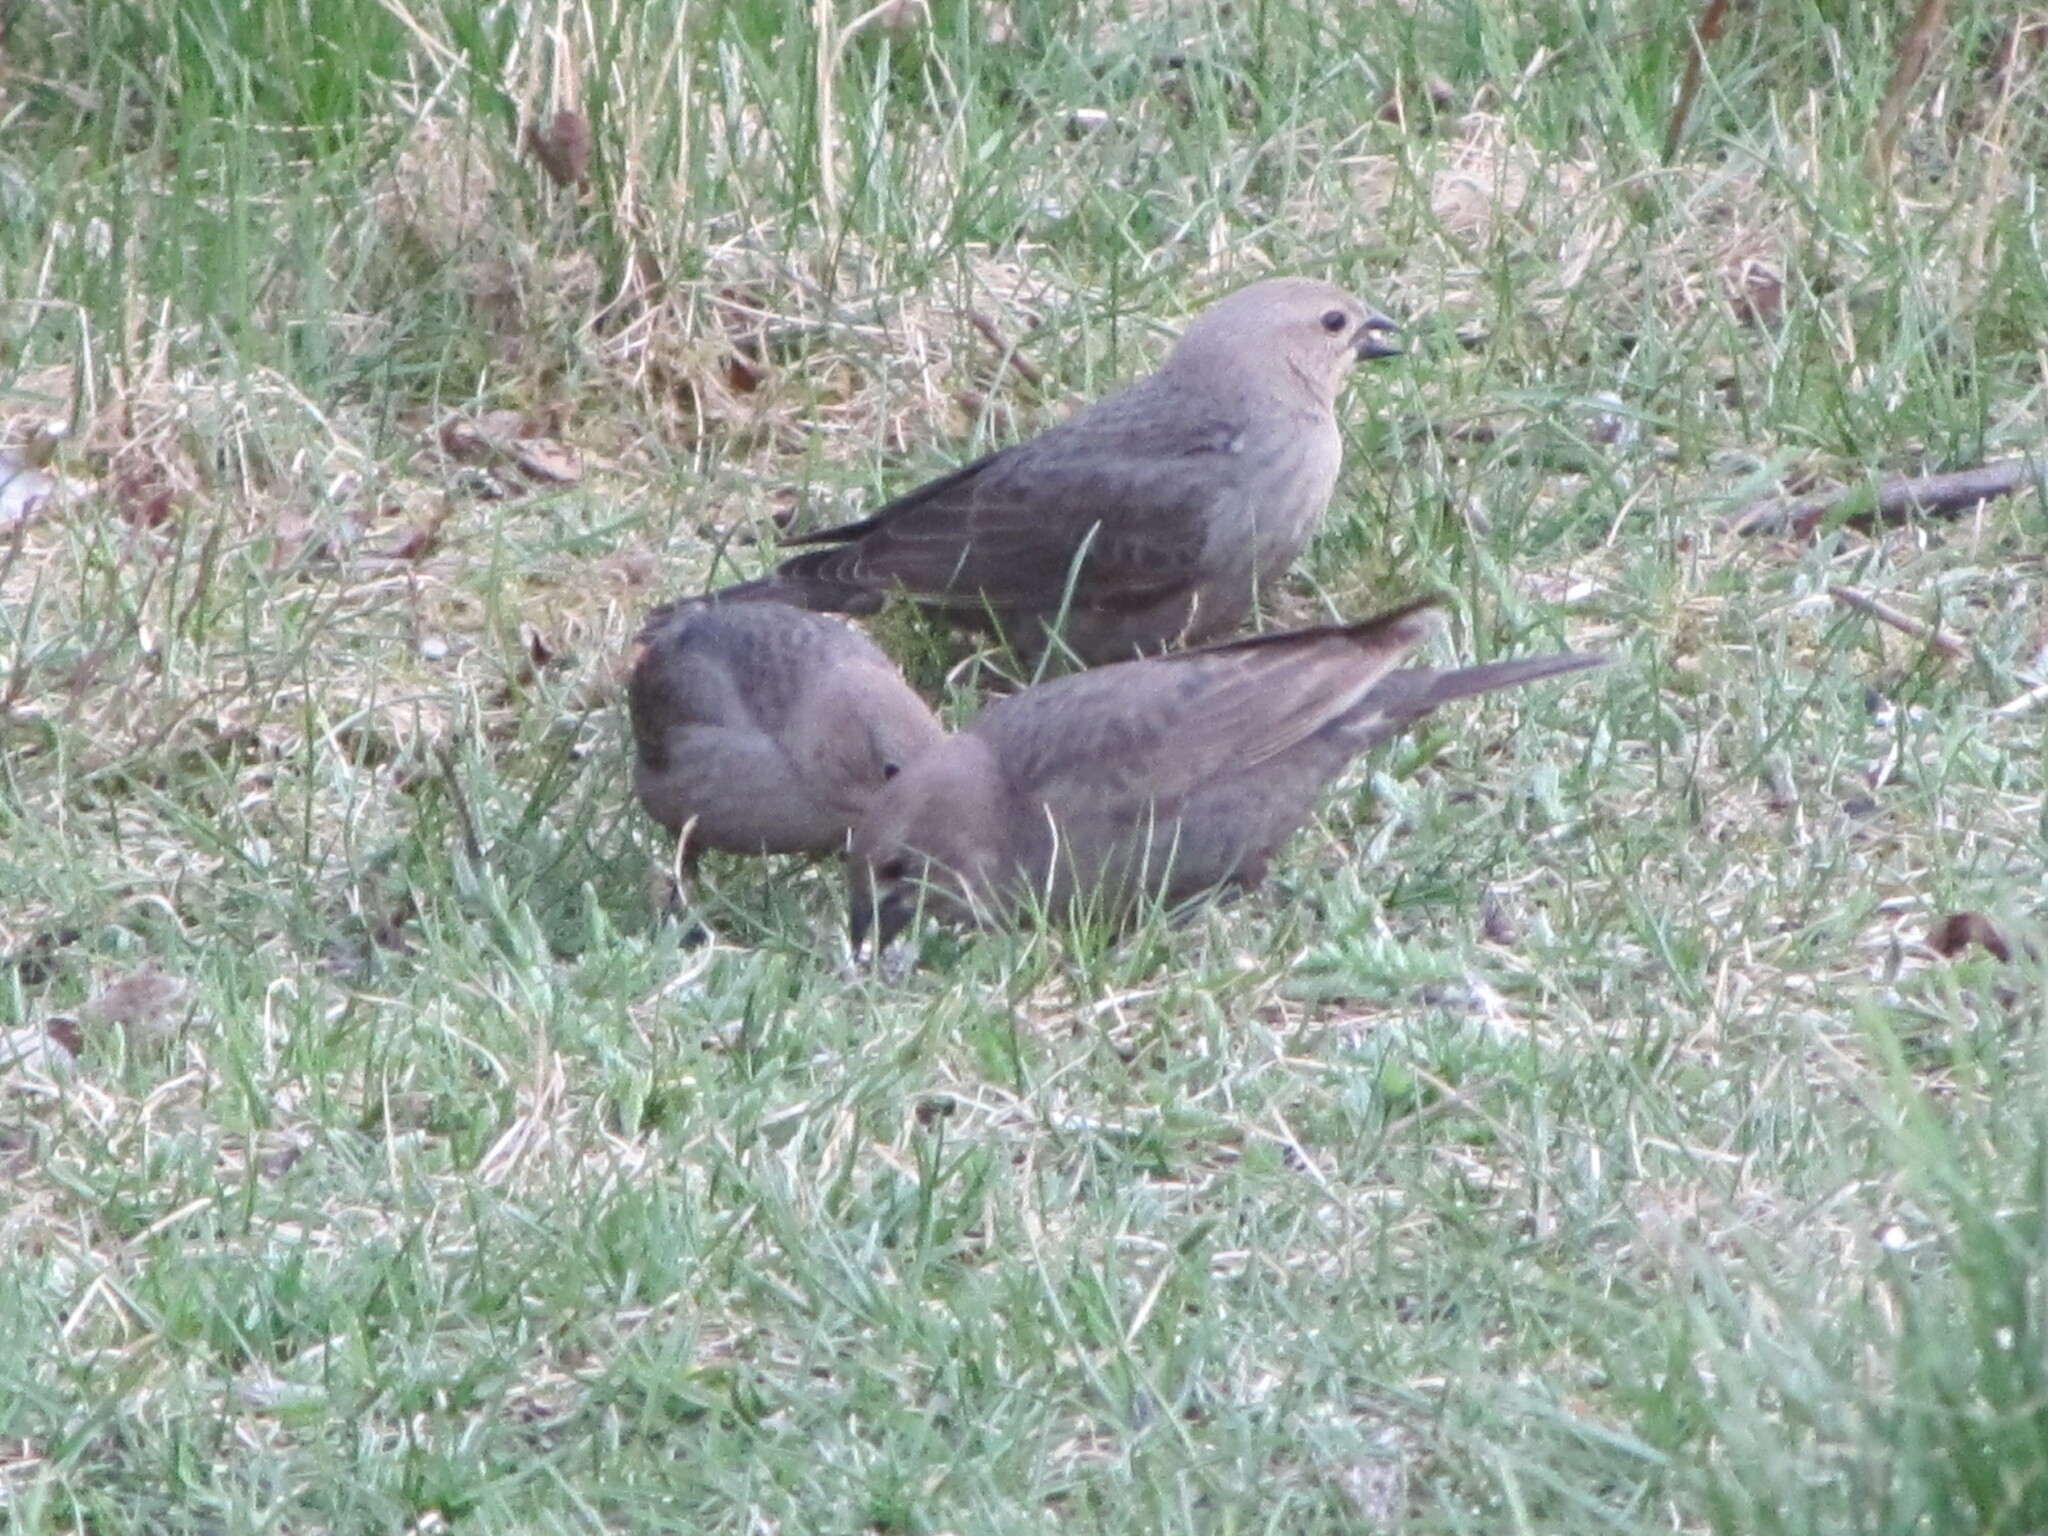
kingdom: Animalia
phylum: Chordata
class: Aves
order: Passeriformes
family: Icteridae
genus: Molothrus
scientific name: Molothrus ater
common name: Brown-headed cowbird
